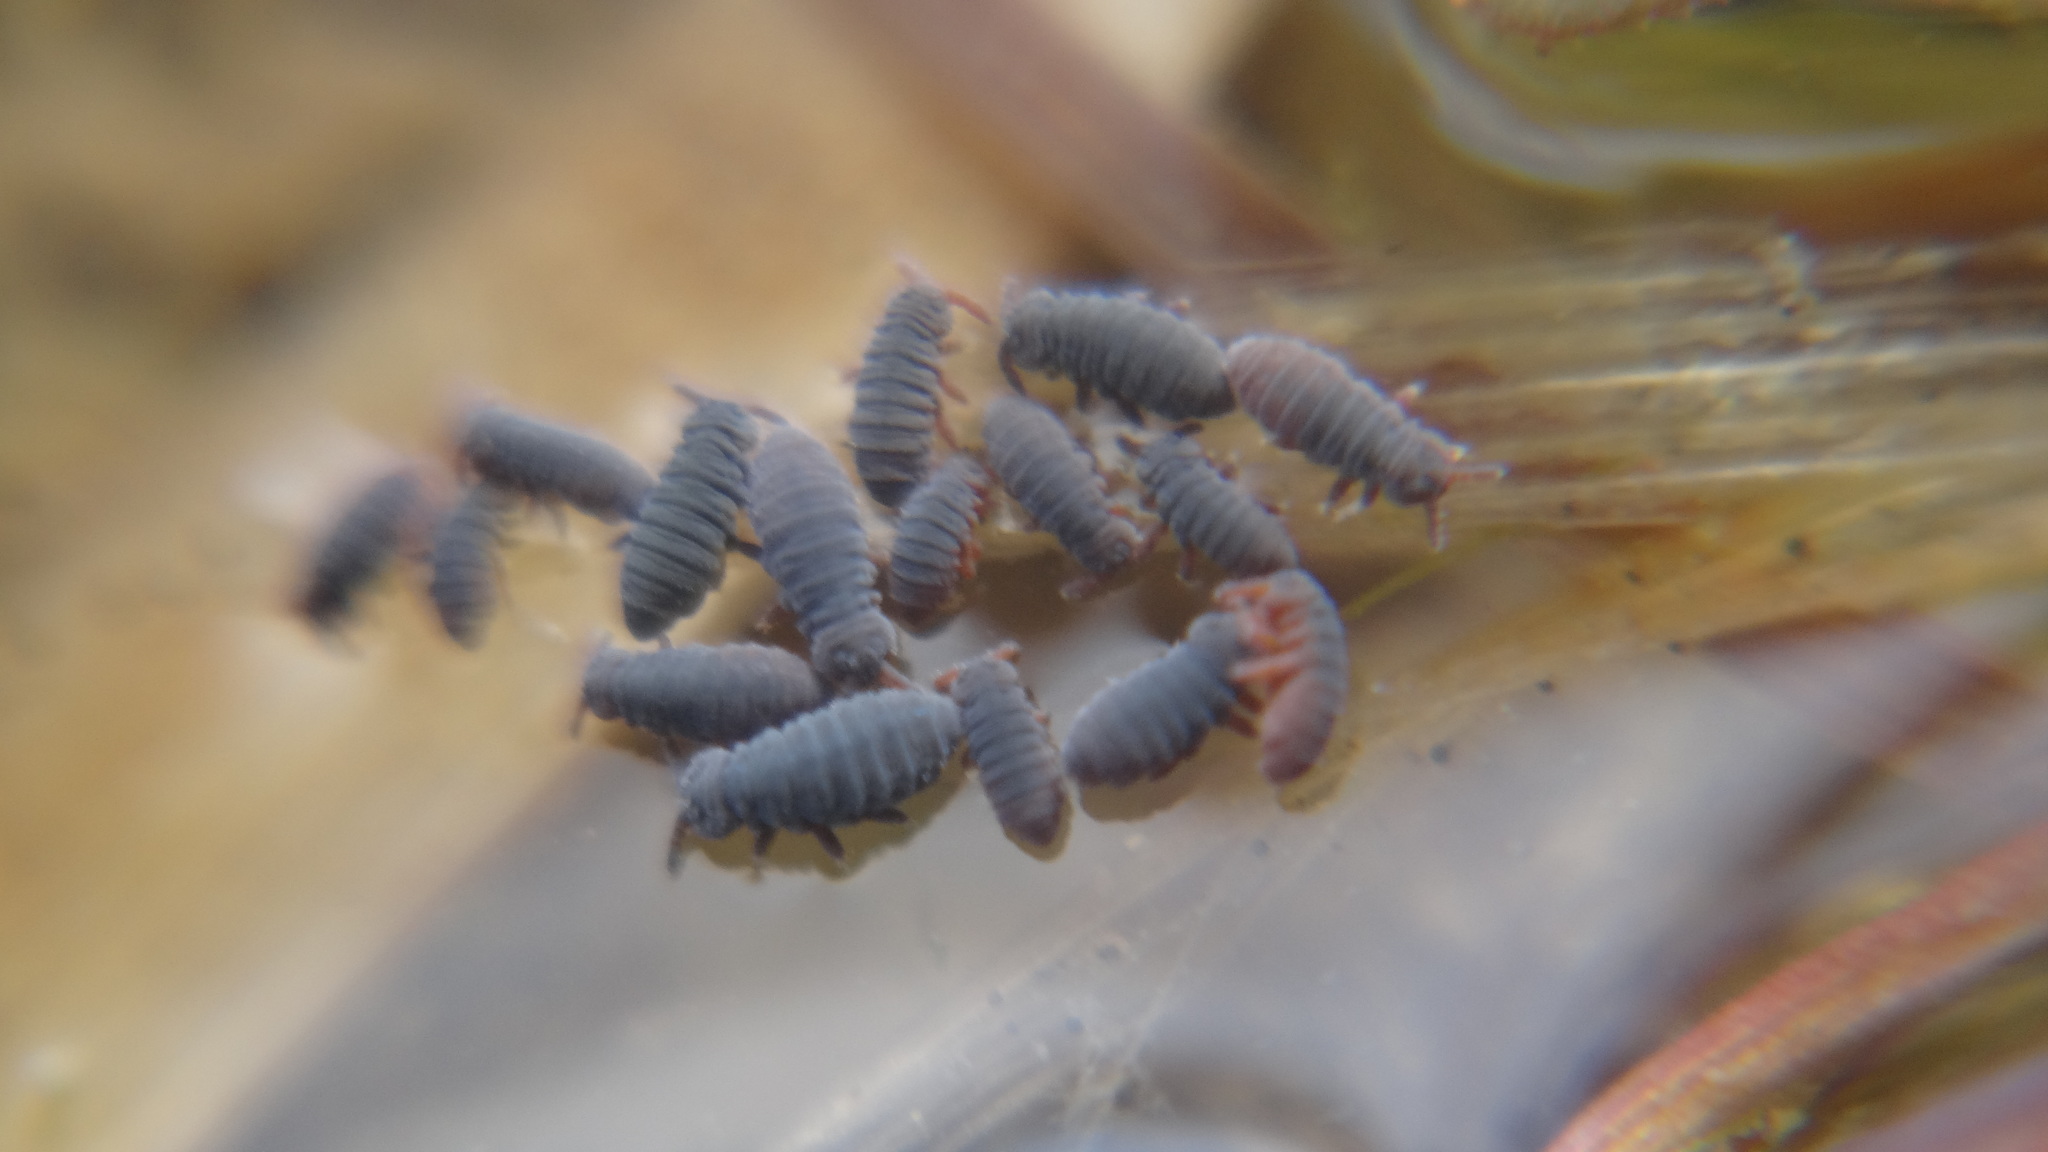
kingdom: Animalia
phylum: Arthropoda
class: Collembola
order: Poduromorpha
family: Poduridae
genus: Podura
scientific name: Podura aquatica
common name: Water springtail
